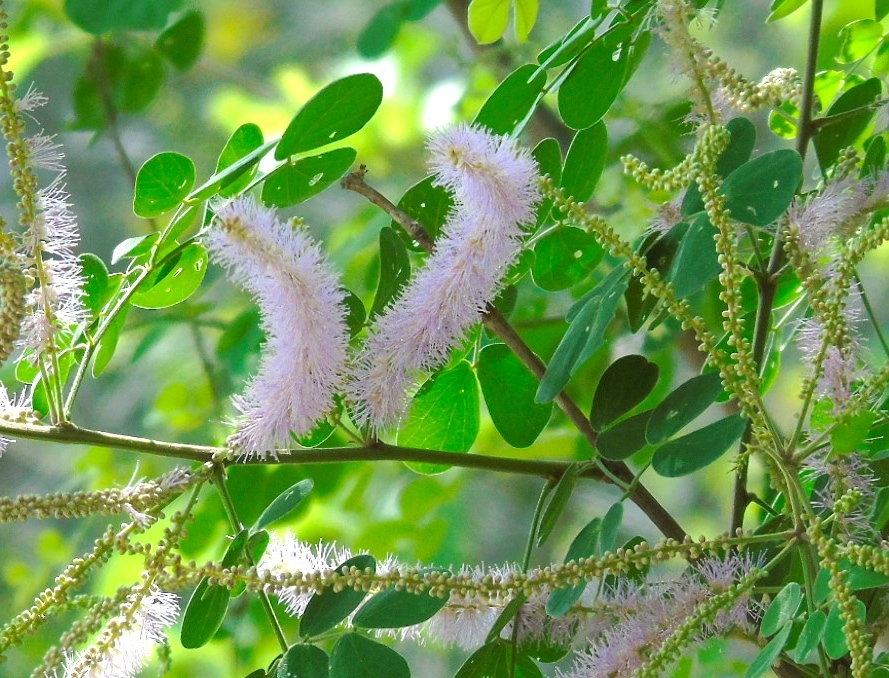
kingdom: Plantae
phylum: Tracheophyta
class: Magnoliopsida
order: Fabales
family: Fabaceae
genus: Mimosa
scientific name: Mimosa spirocarpa
